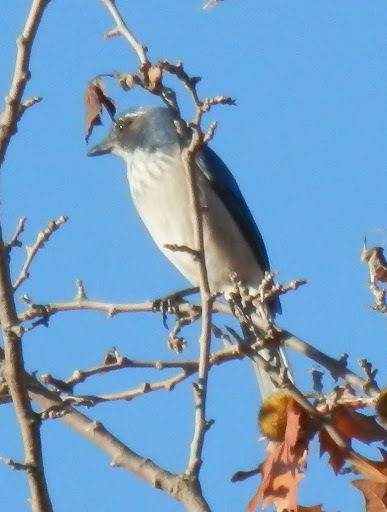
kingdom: Animalia
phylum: Chordata
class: Aves
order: Passeriformes
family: Corvidae
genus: Aphelocoma
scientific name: Aphelocoma californica
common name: California scrub-jay
